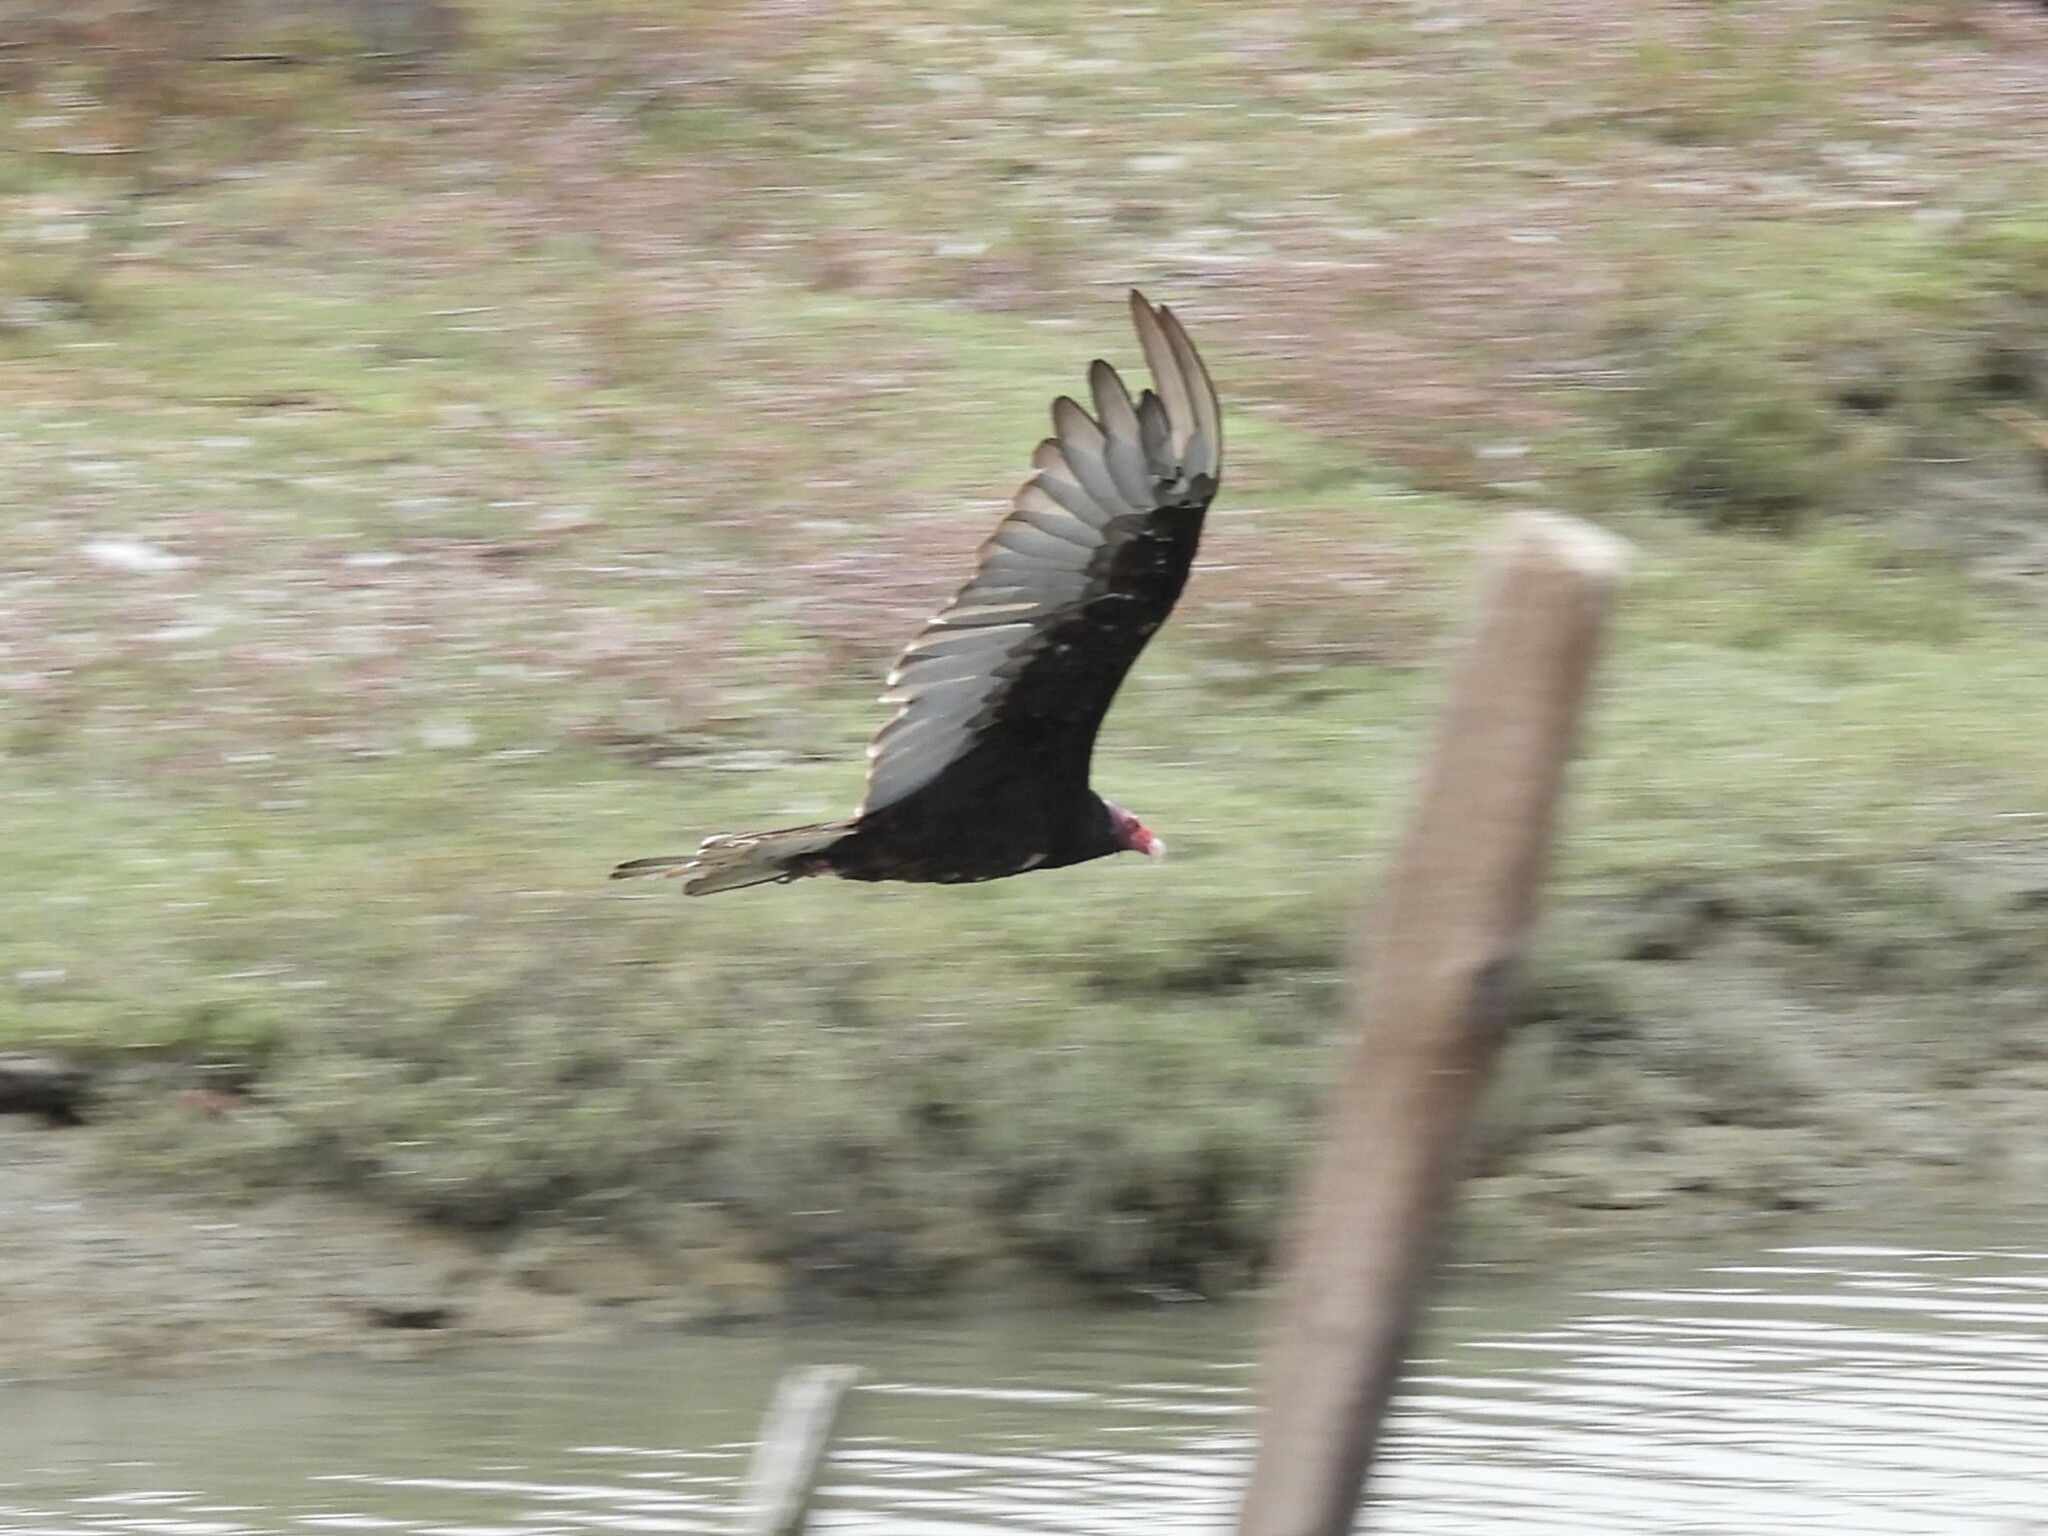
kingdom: Animalia
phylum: Chordata
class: Aves
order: Accipitriformes
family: Cathartidae
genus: Cathartes
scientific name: Cathartes aura
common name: Turkey vulture
